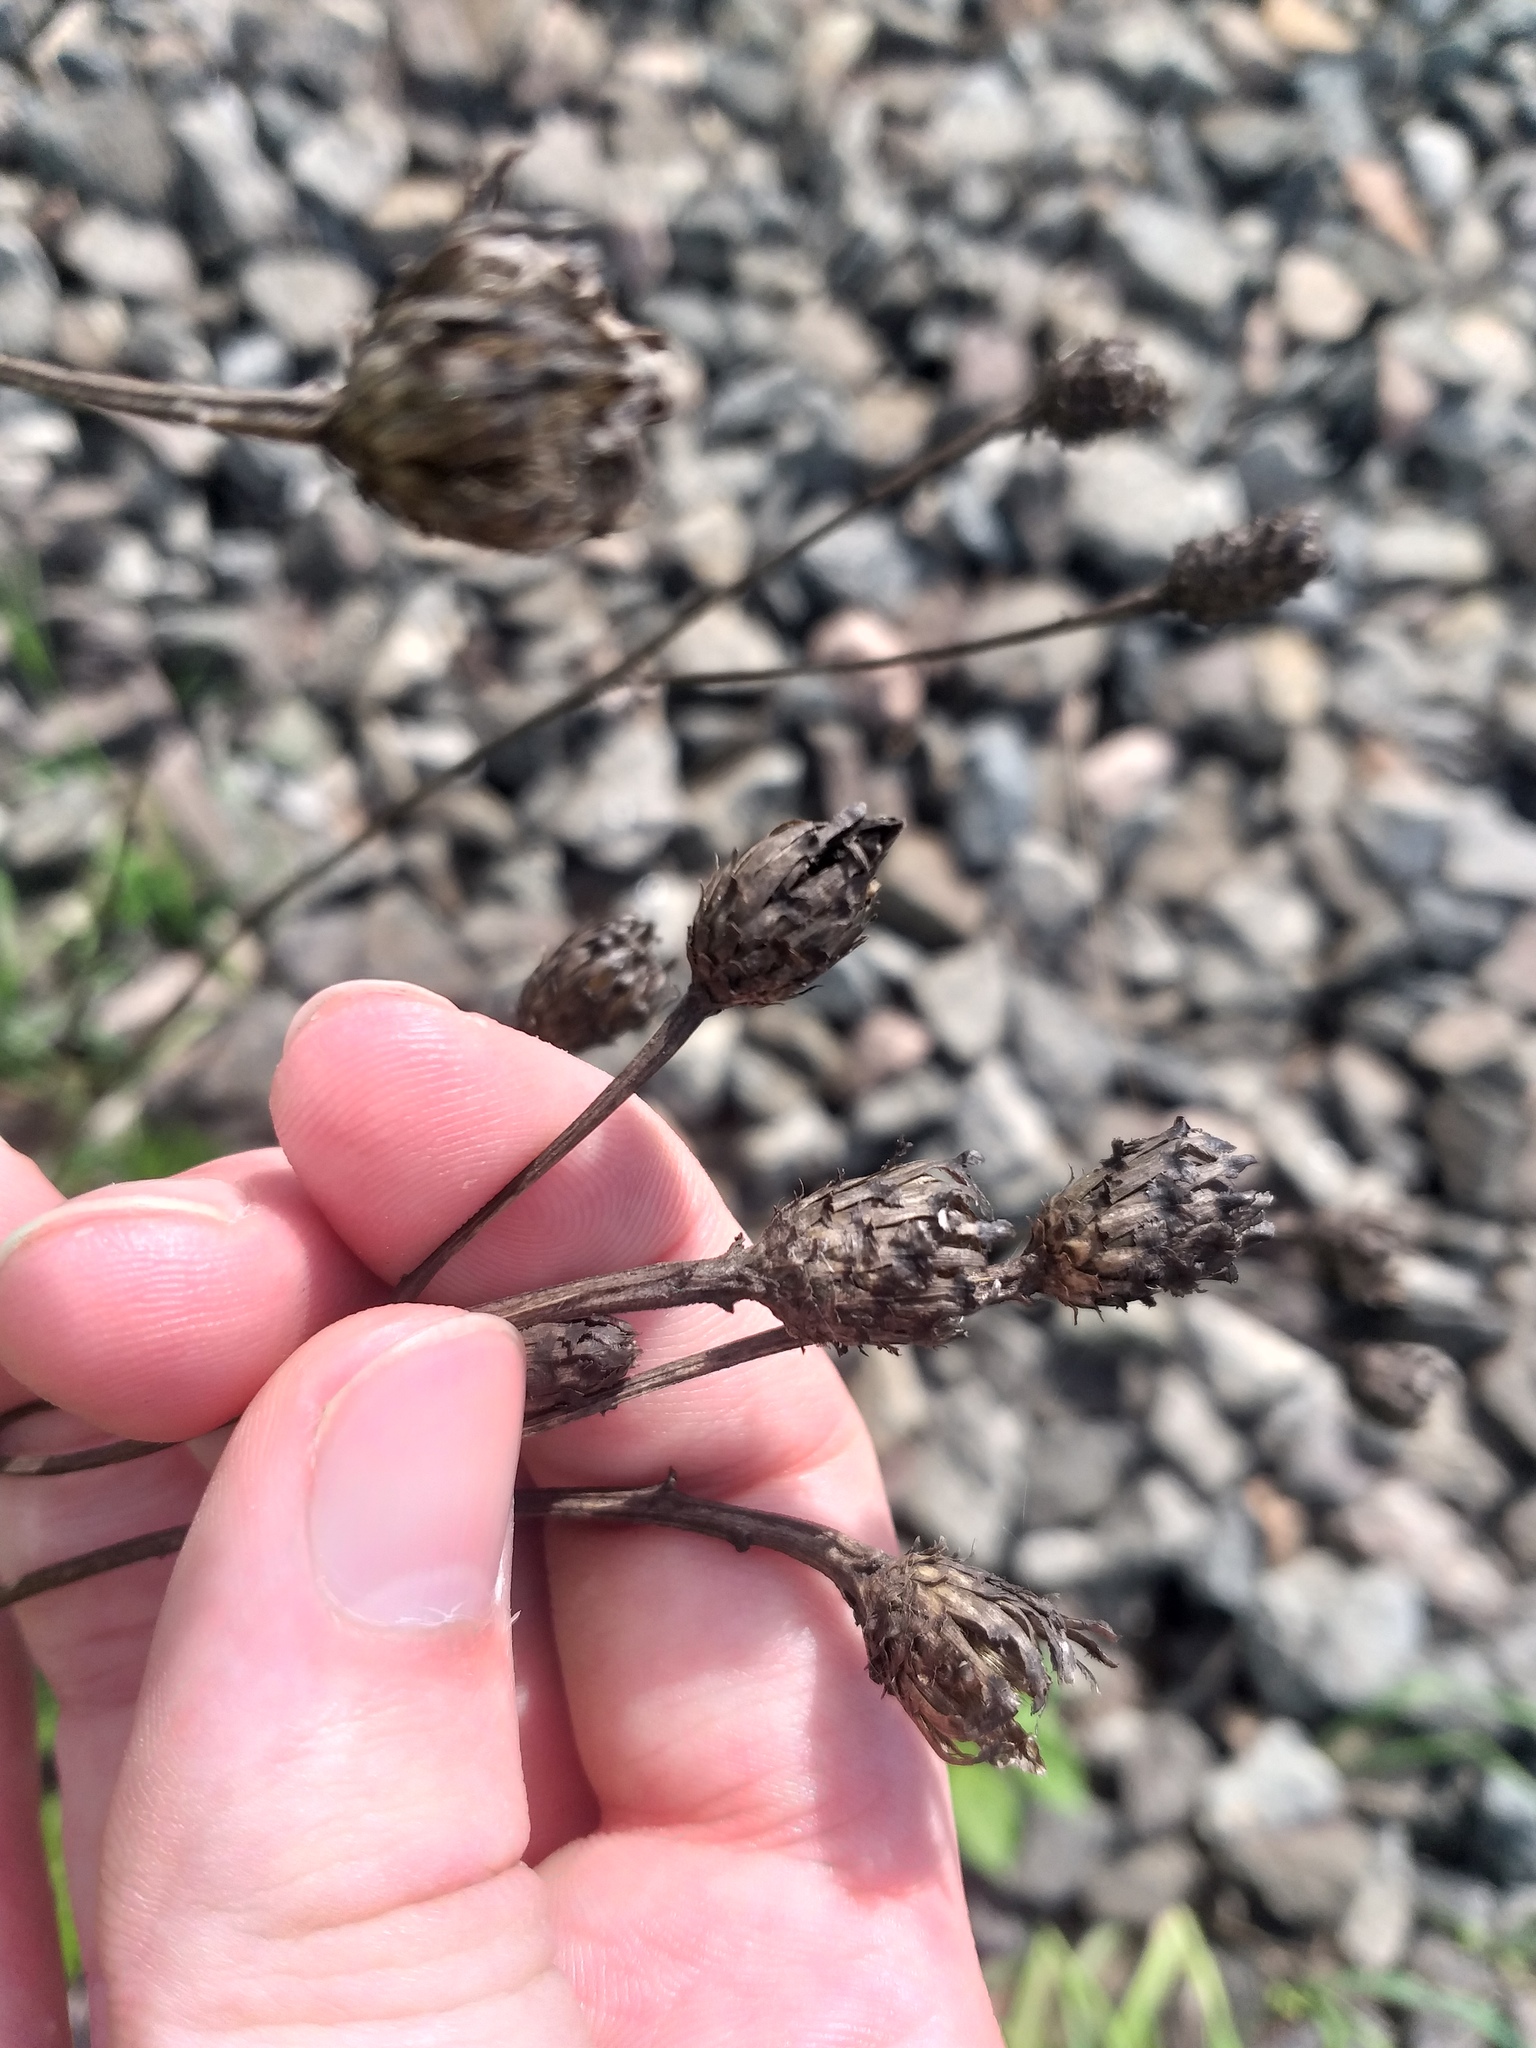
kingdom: Plantae
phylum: Tracheophyta
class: Magnoliopsida
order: Asterales
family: Asteraceae
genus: Centaurea
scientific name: Centaurea jacea
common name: Brown knapweed
